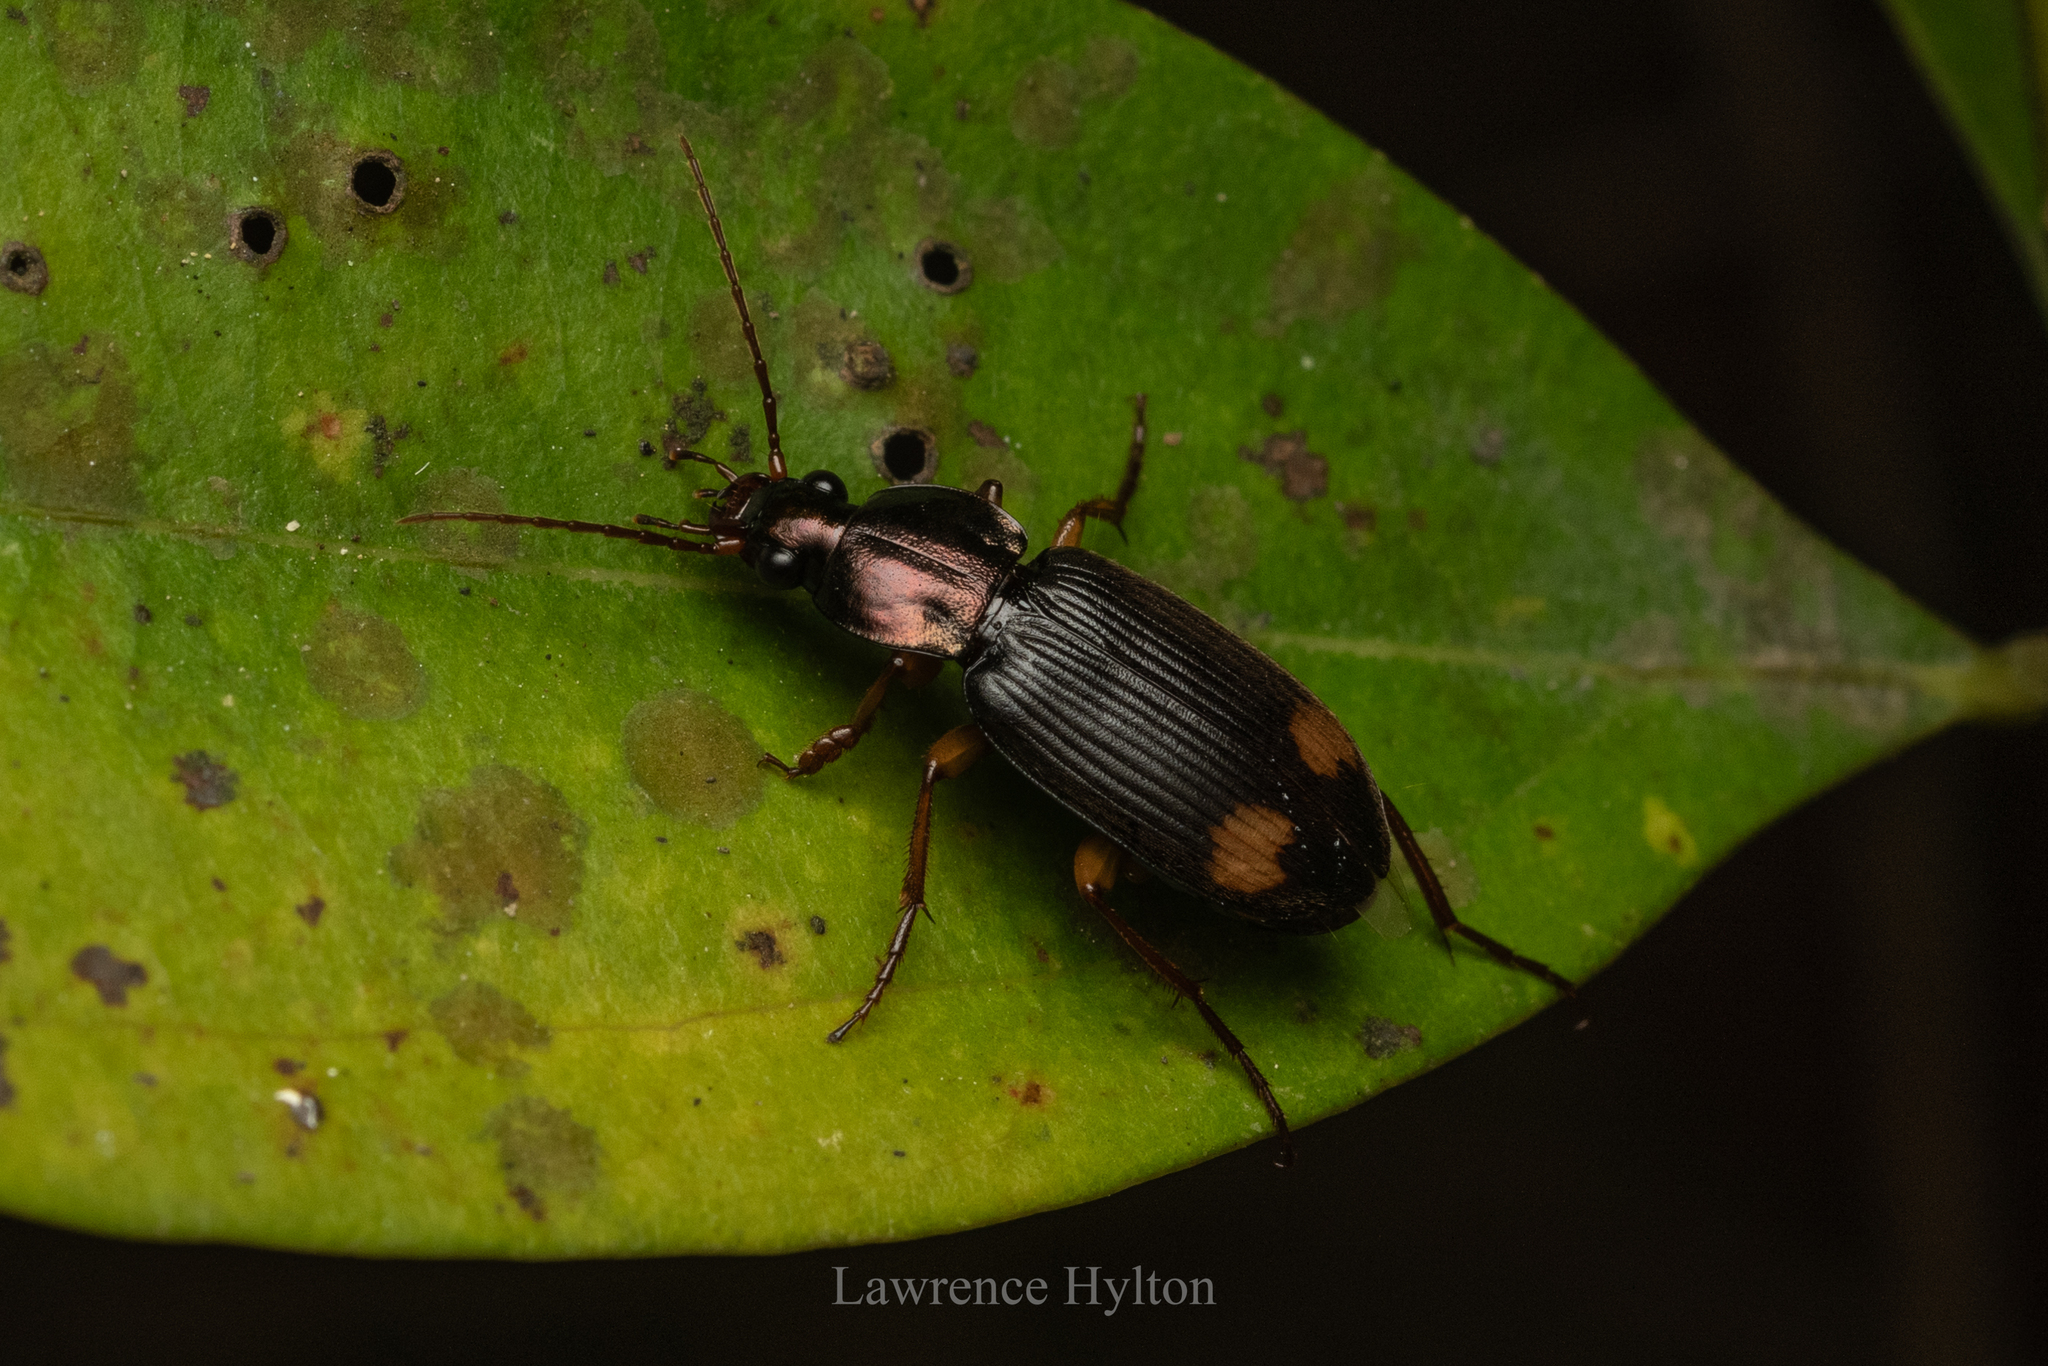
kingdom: Animalia
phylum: Arthropoda
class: Insecta
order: Coleoptera
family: Carabidae
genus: Chlaenius
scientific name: Chlaenius tetragonoderus
